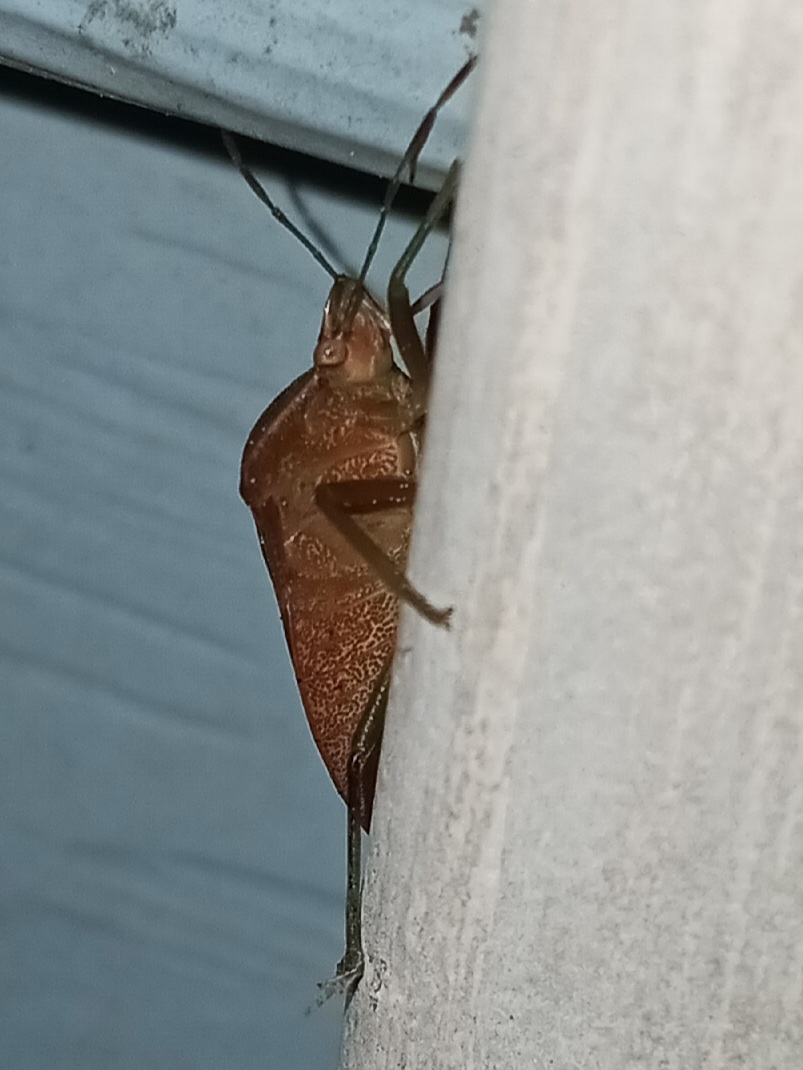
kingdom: Animalia
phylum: Arthropoda
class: Insecta
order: Hemiptera
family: Pentatomidae
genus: Nezara
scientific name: Nezara viridula
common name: Southern green stink bug
